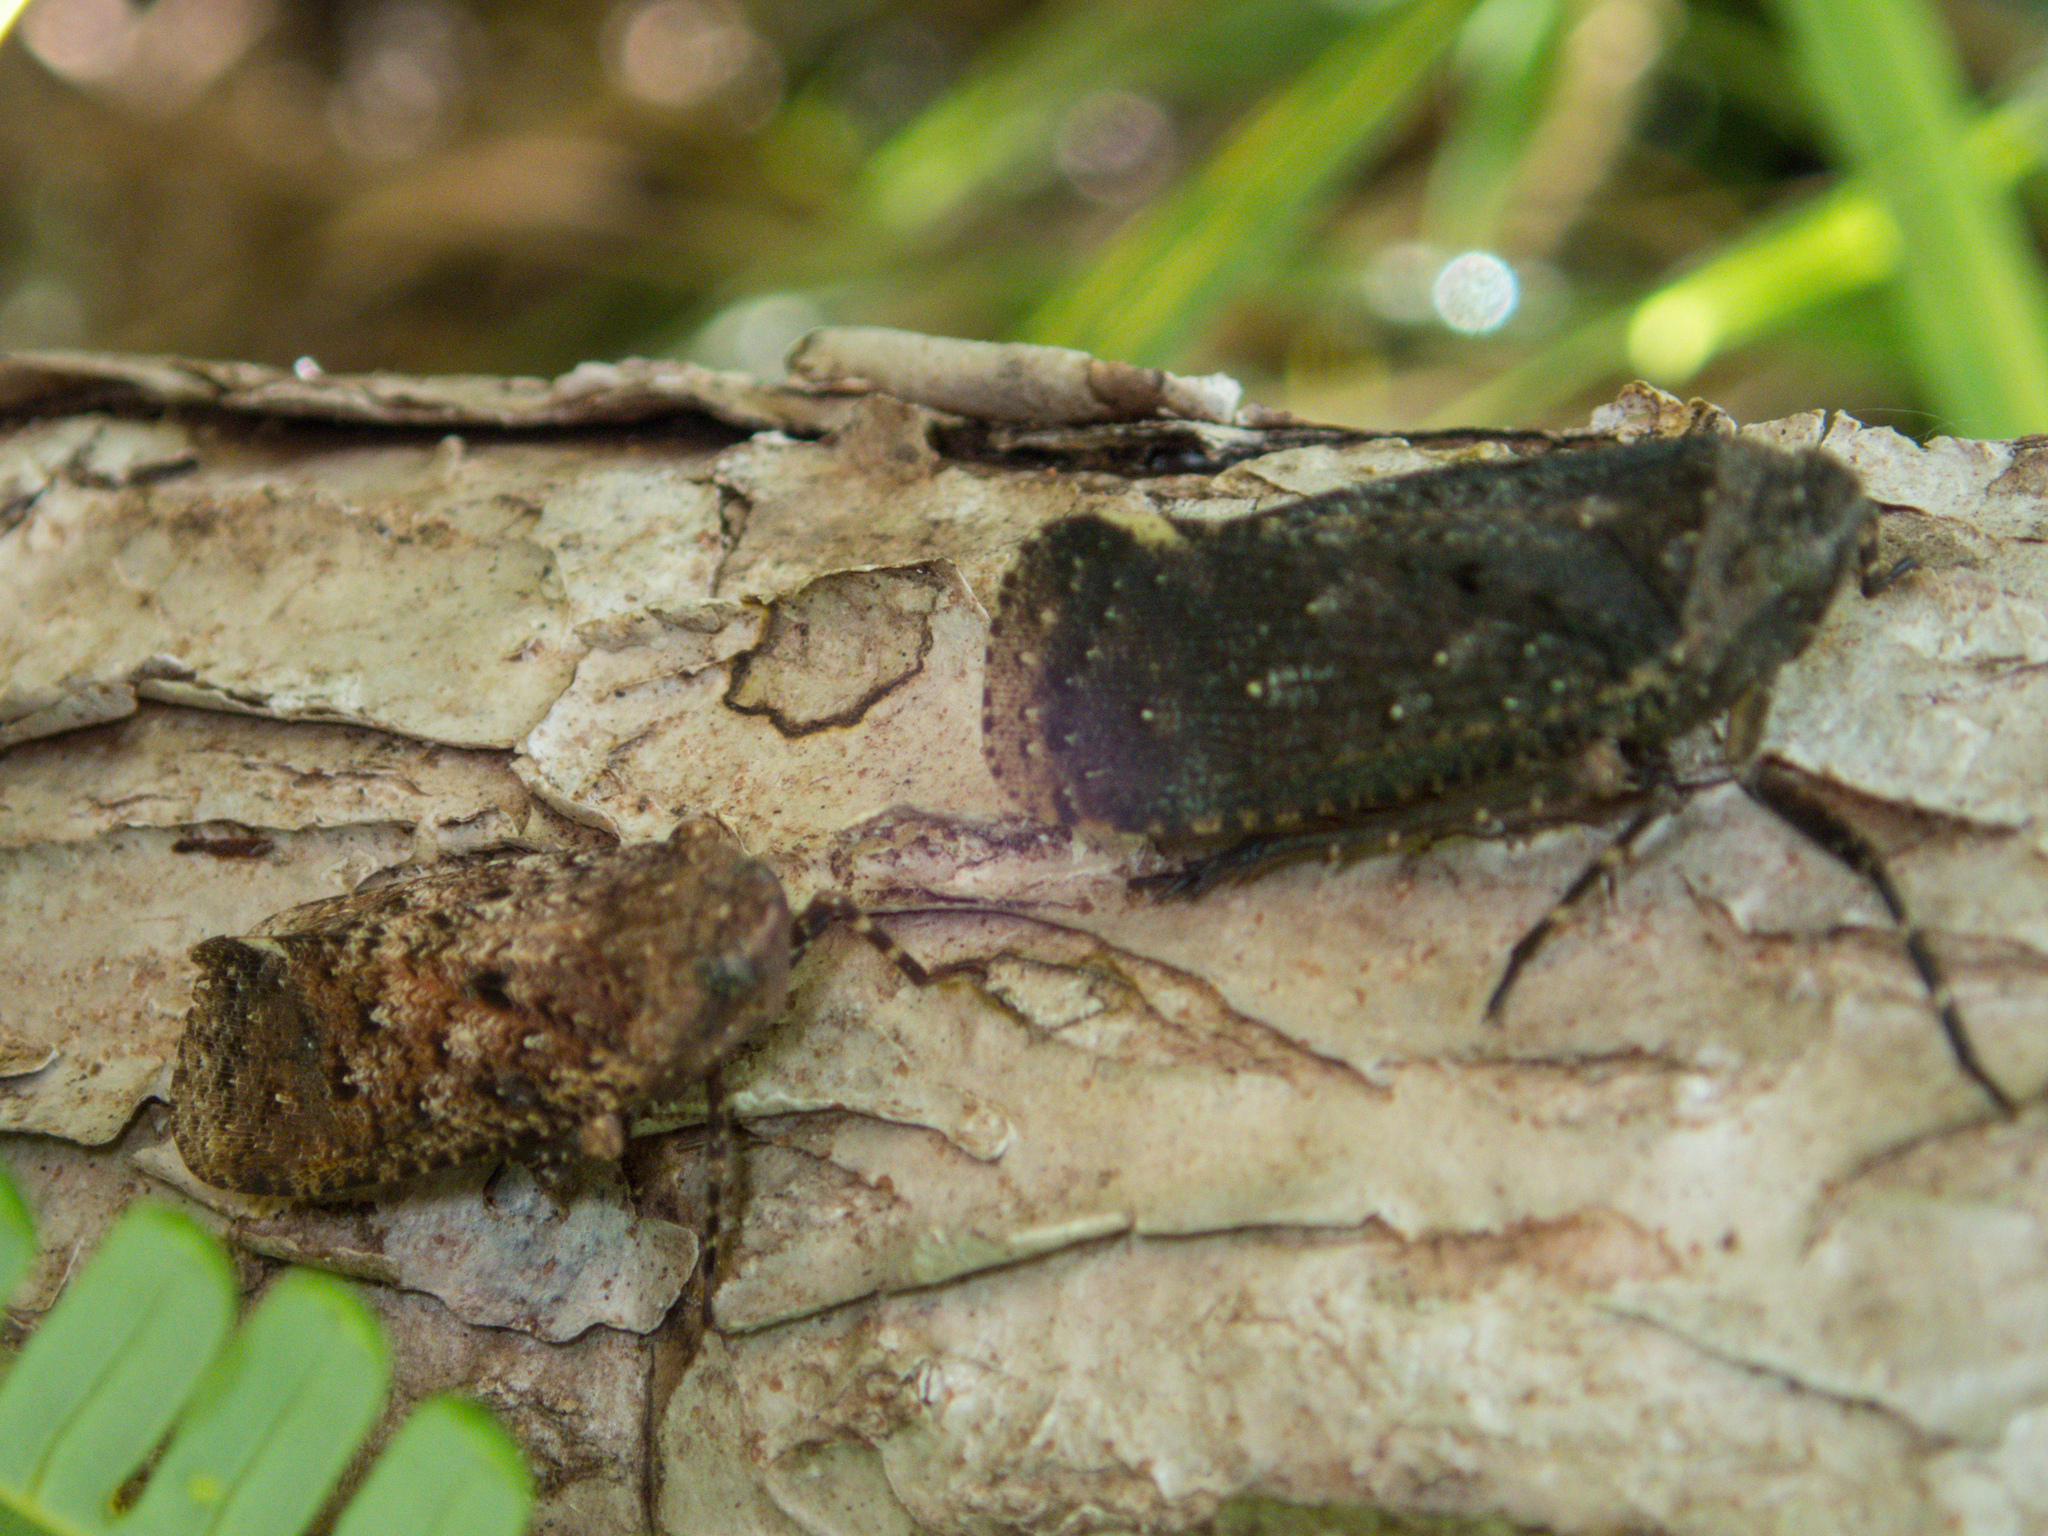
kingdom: Animalia
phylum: Arthropoda
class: Insecta
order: Hemiptera
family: Fulgoridae
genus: Penthicodes
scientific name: Penthicodes pulchella
